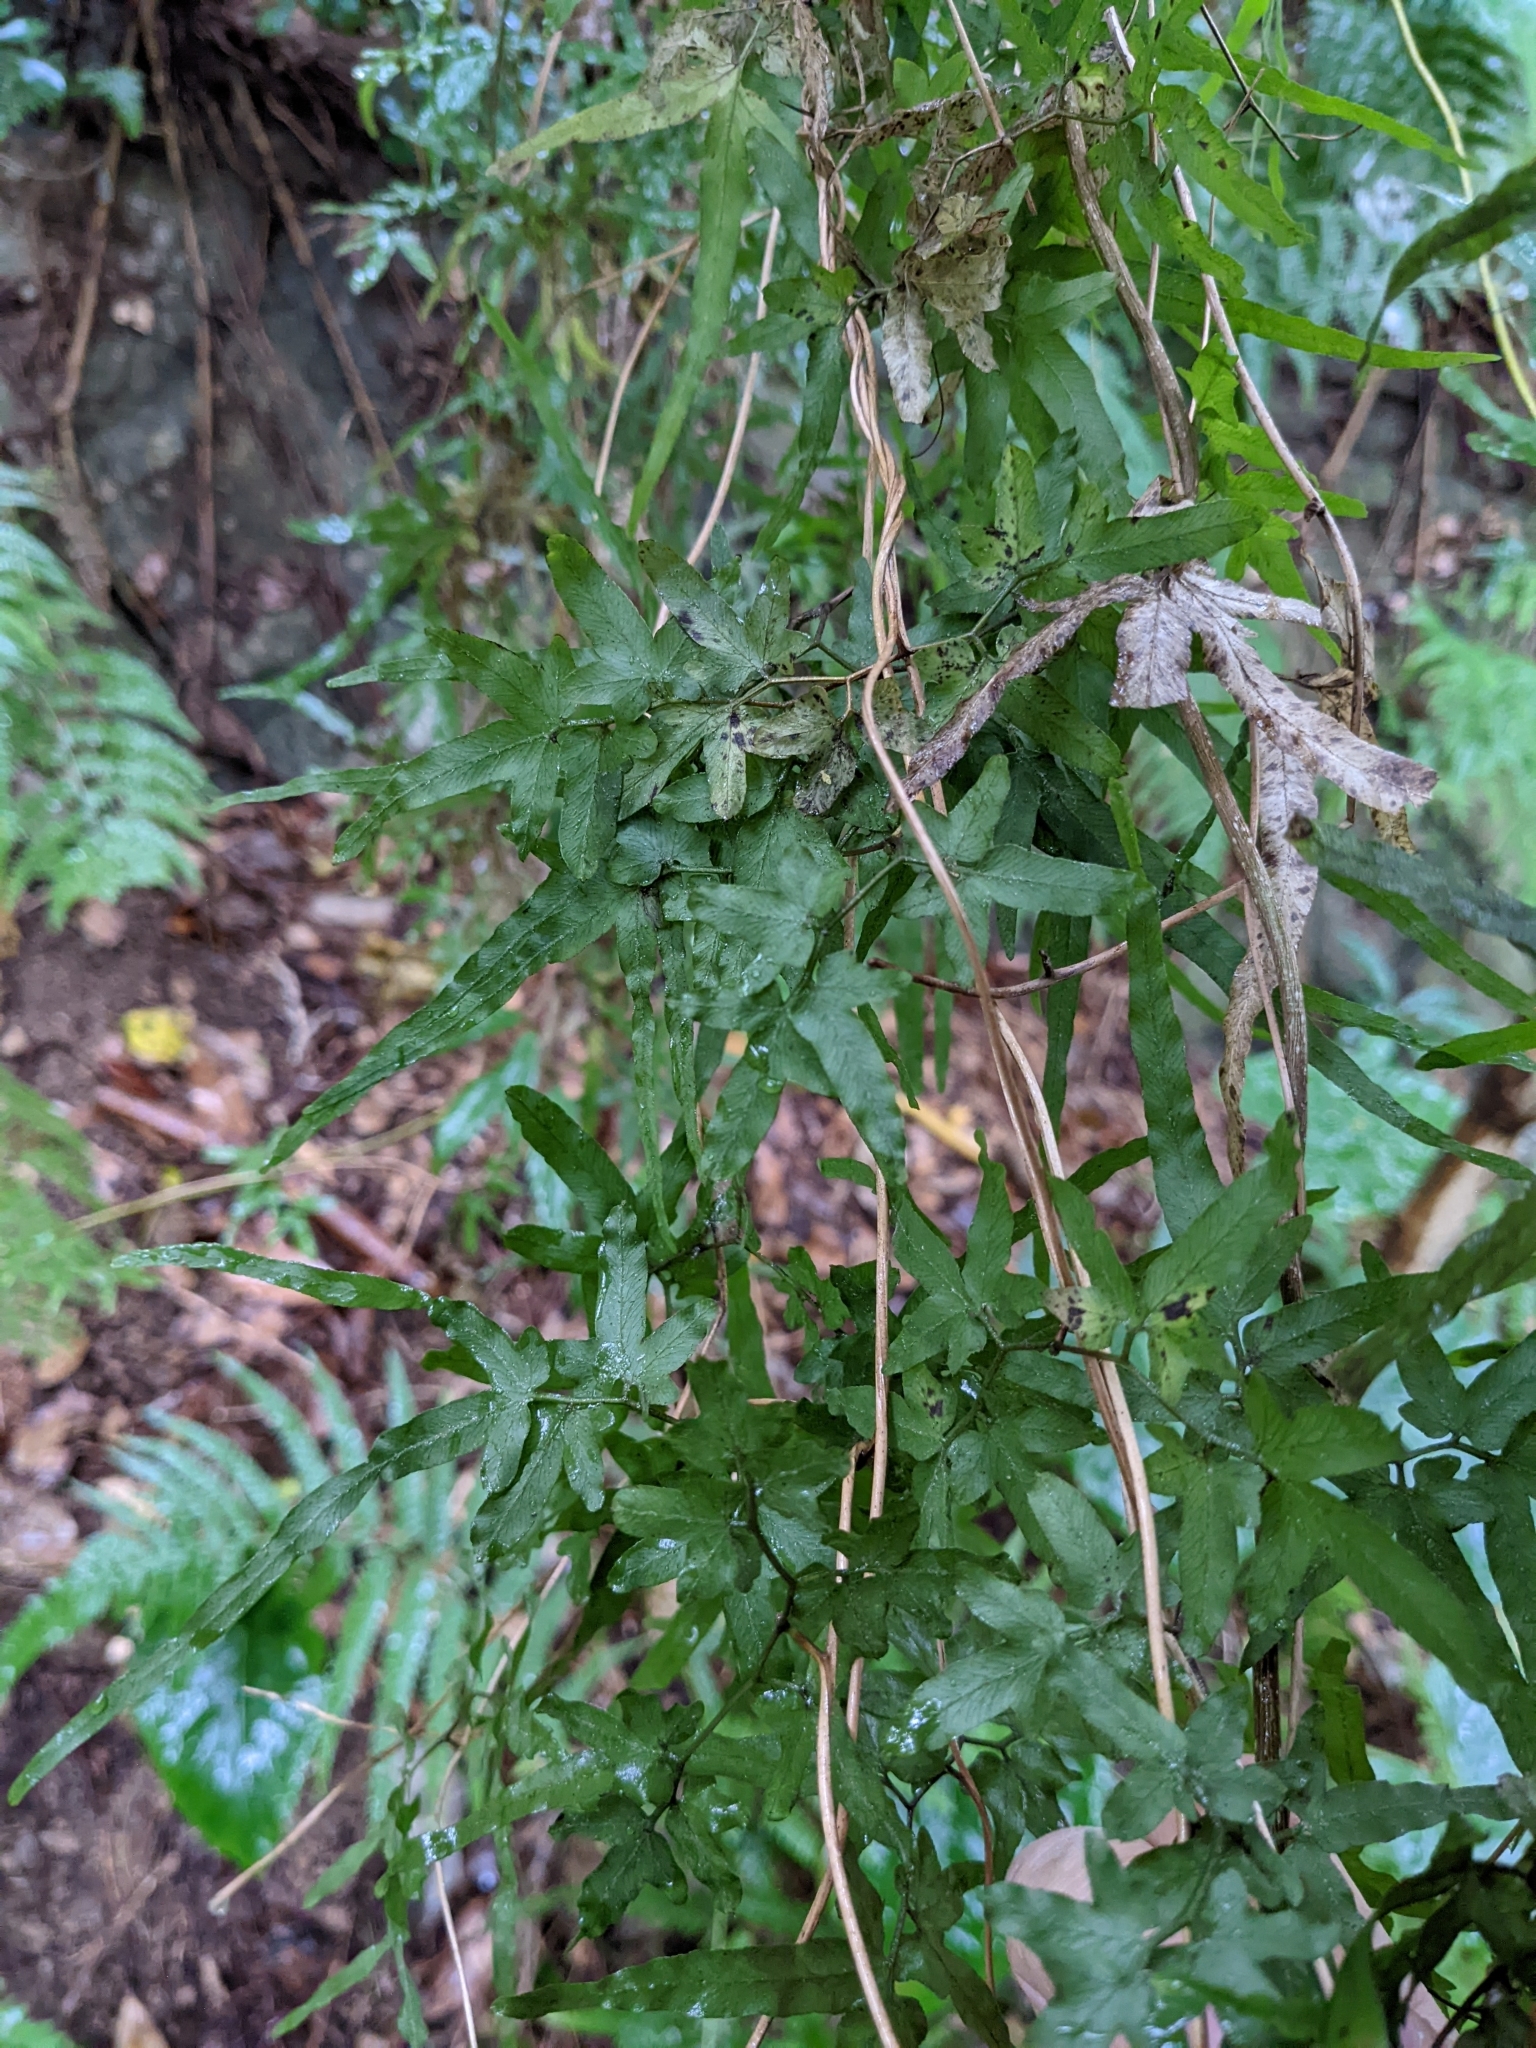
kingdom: Plantae
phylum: Tracheophyta
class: Polypodiopsida
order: Schizaeales
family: Lygodiaceae
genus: Lygodium
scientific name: Lygodium japonicum
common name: Japanese climbing fern
